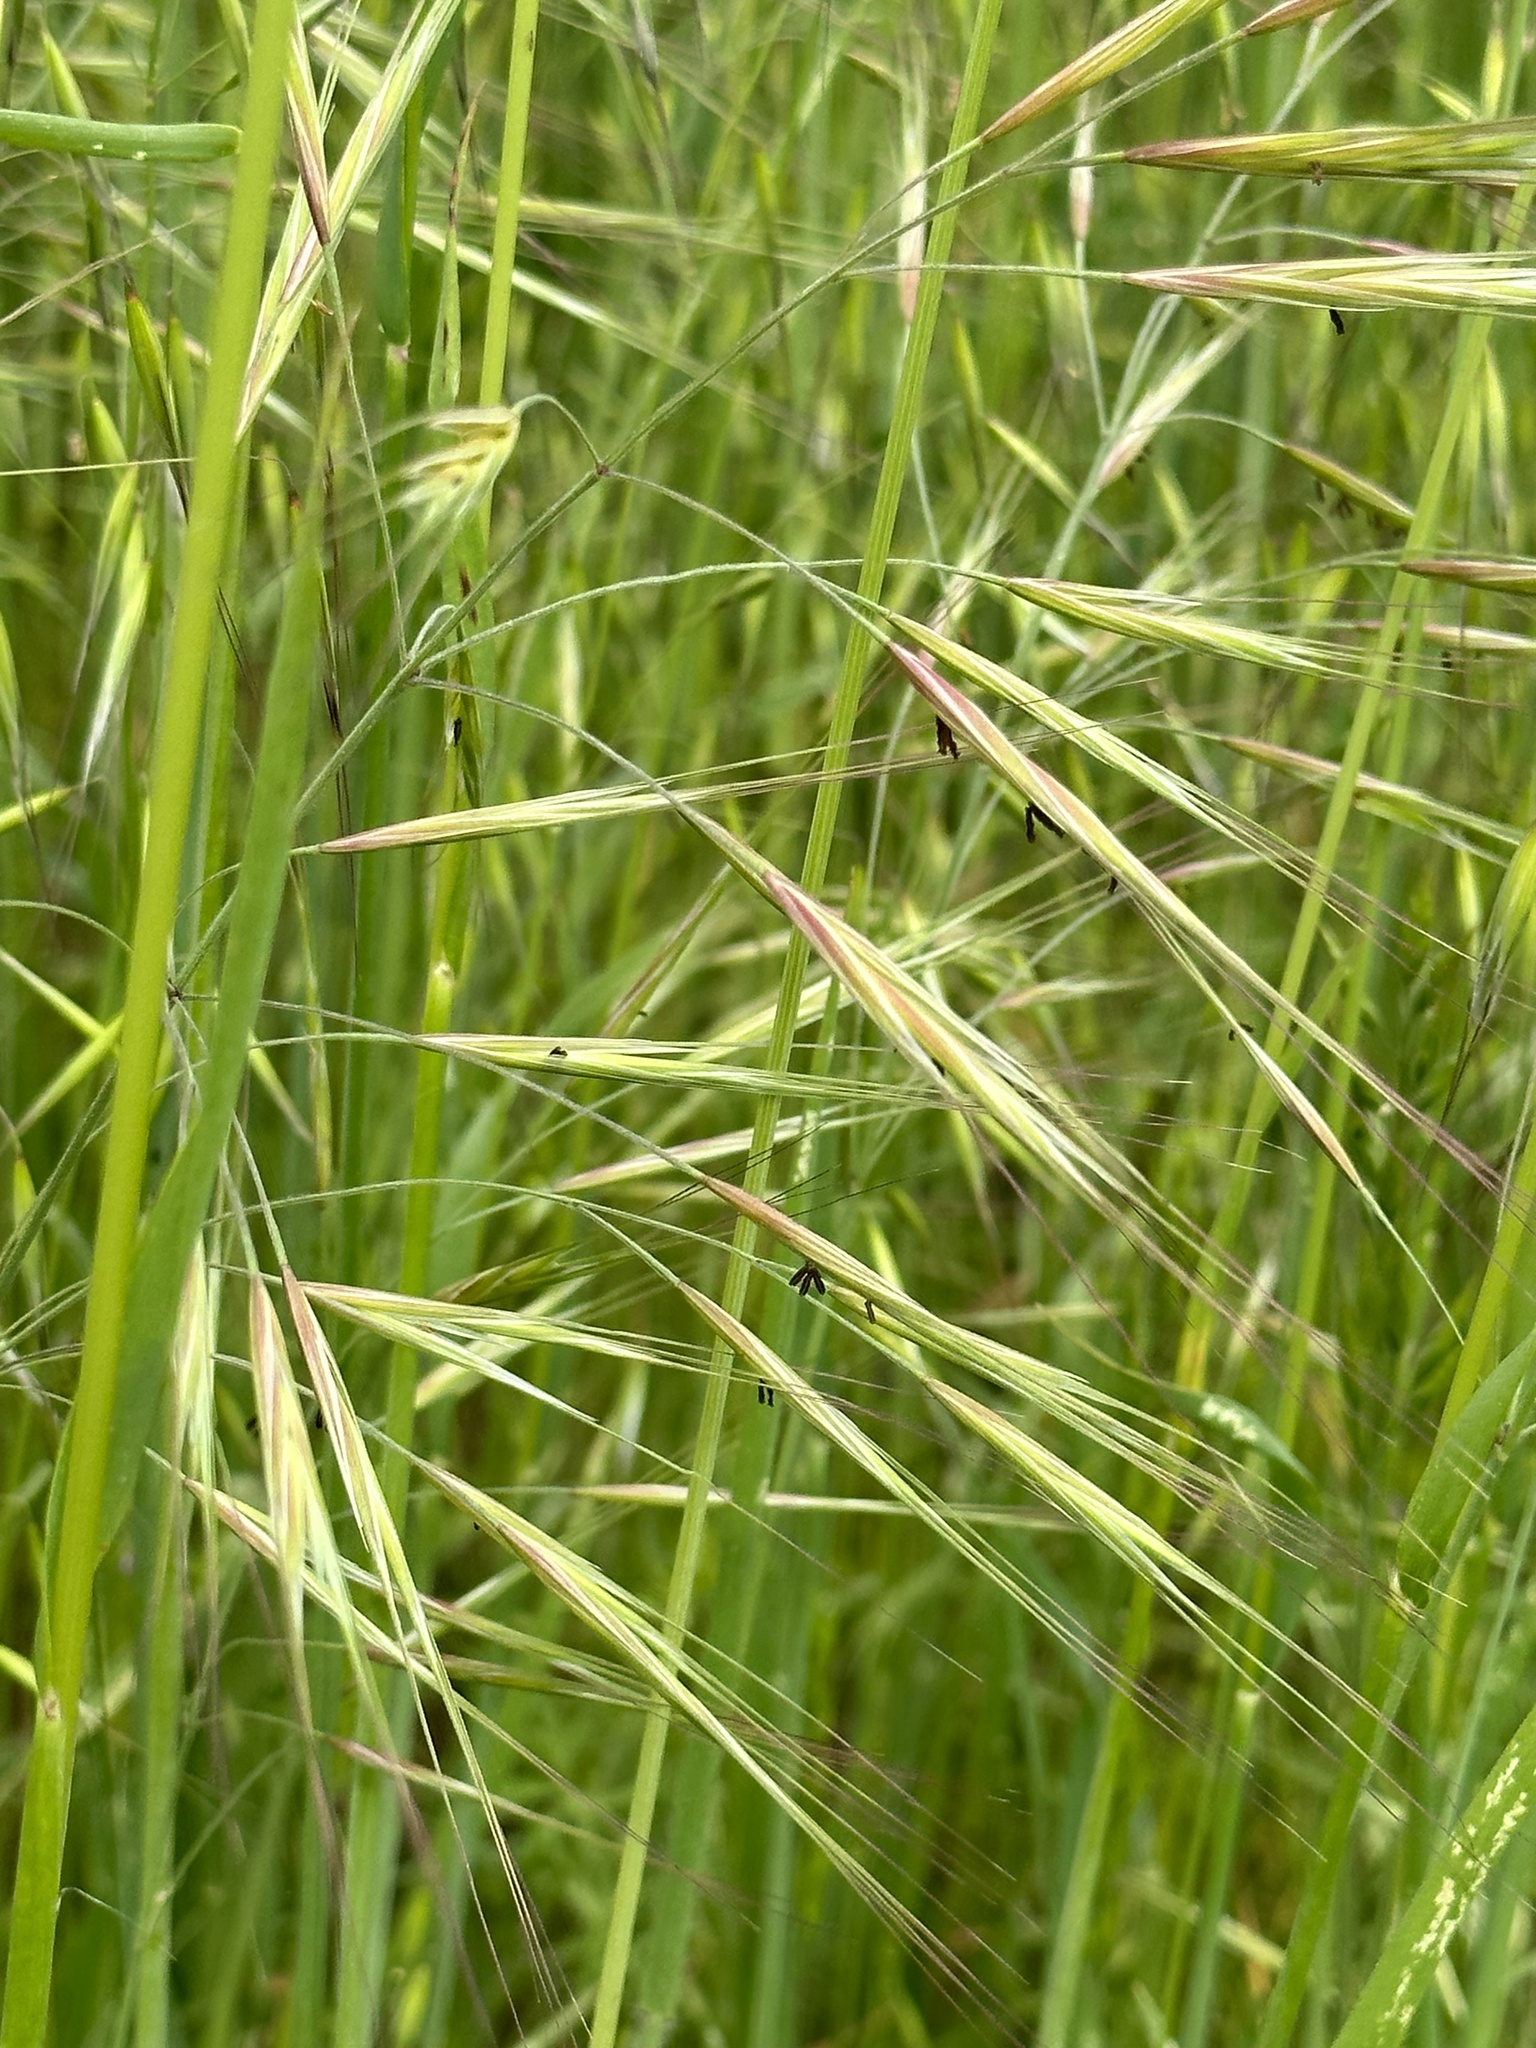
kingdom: Plantae
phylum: Tracheophyta
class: Liliopsida
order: Poales
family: Poaceae
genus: Bromus
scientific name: Bromus diandrus
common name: Ripgut brome
